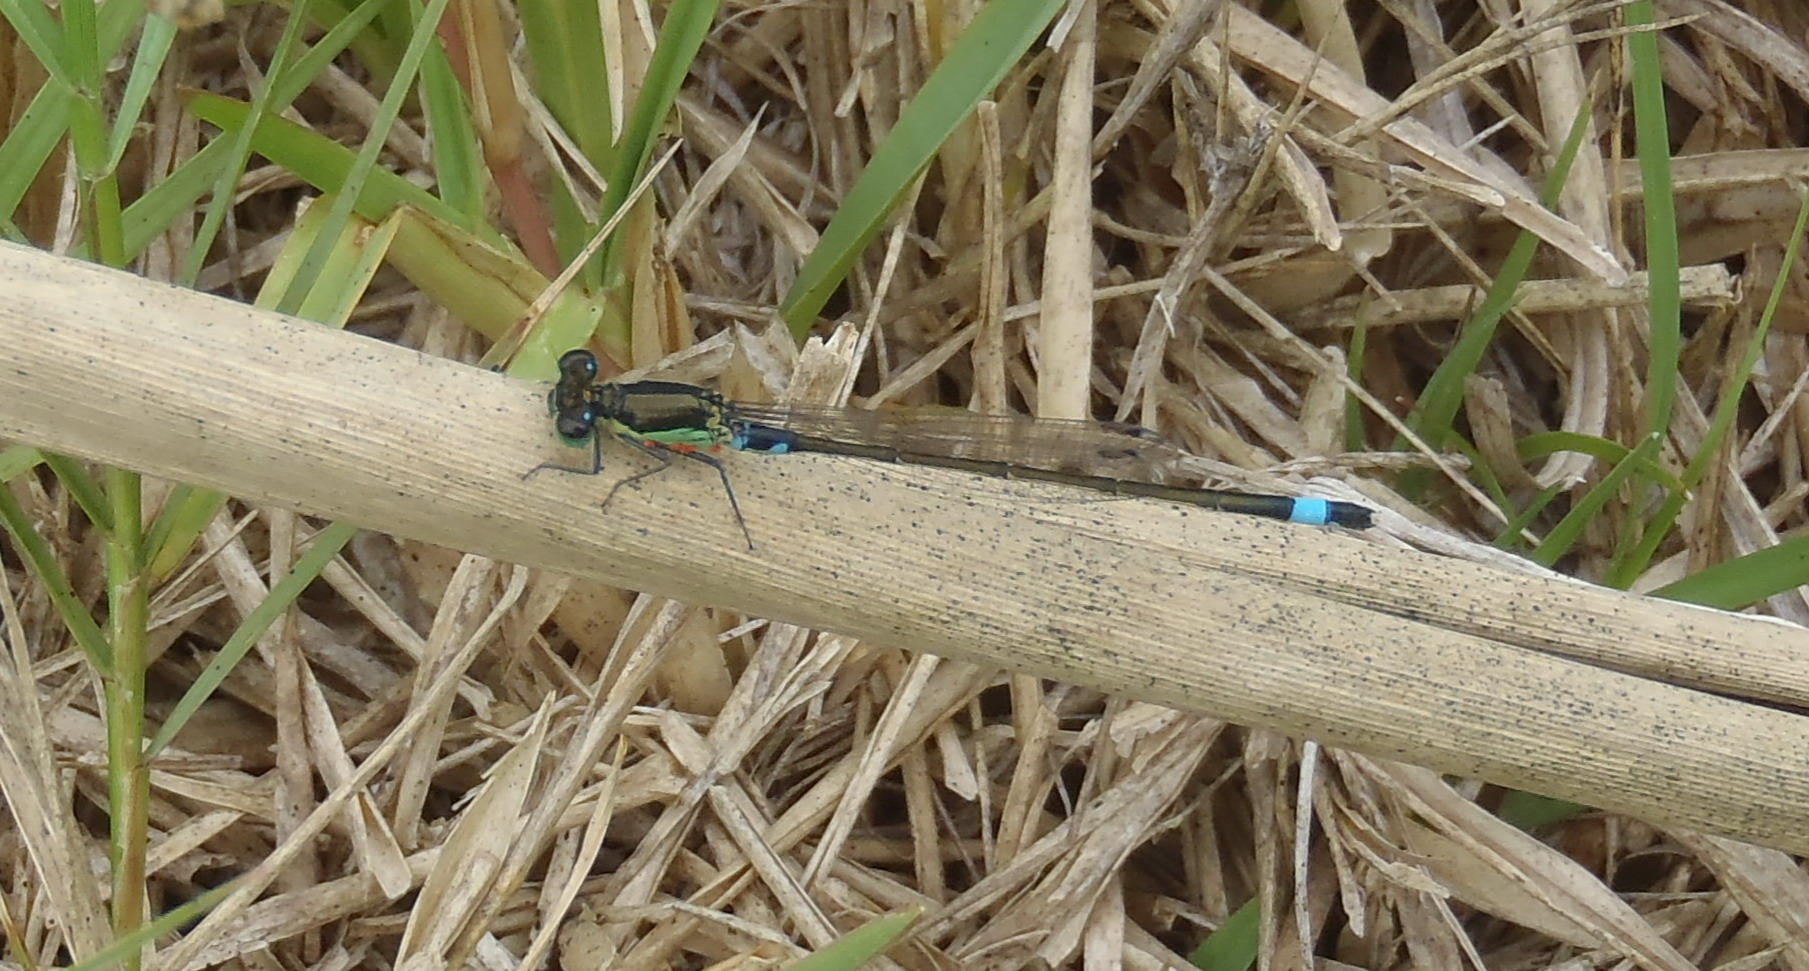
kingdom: Animalia
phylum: Arthropoda
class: Insecta
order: Odonata
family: Coenagrionidae
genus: Ischnura
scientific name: Ischnura senegalensis
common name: Tropical bluetail
